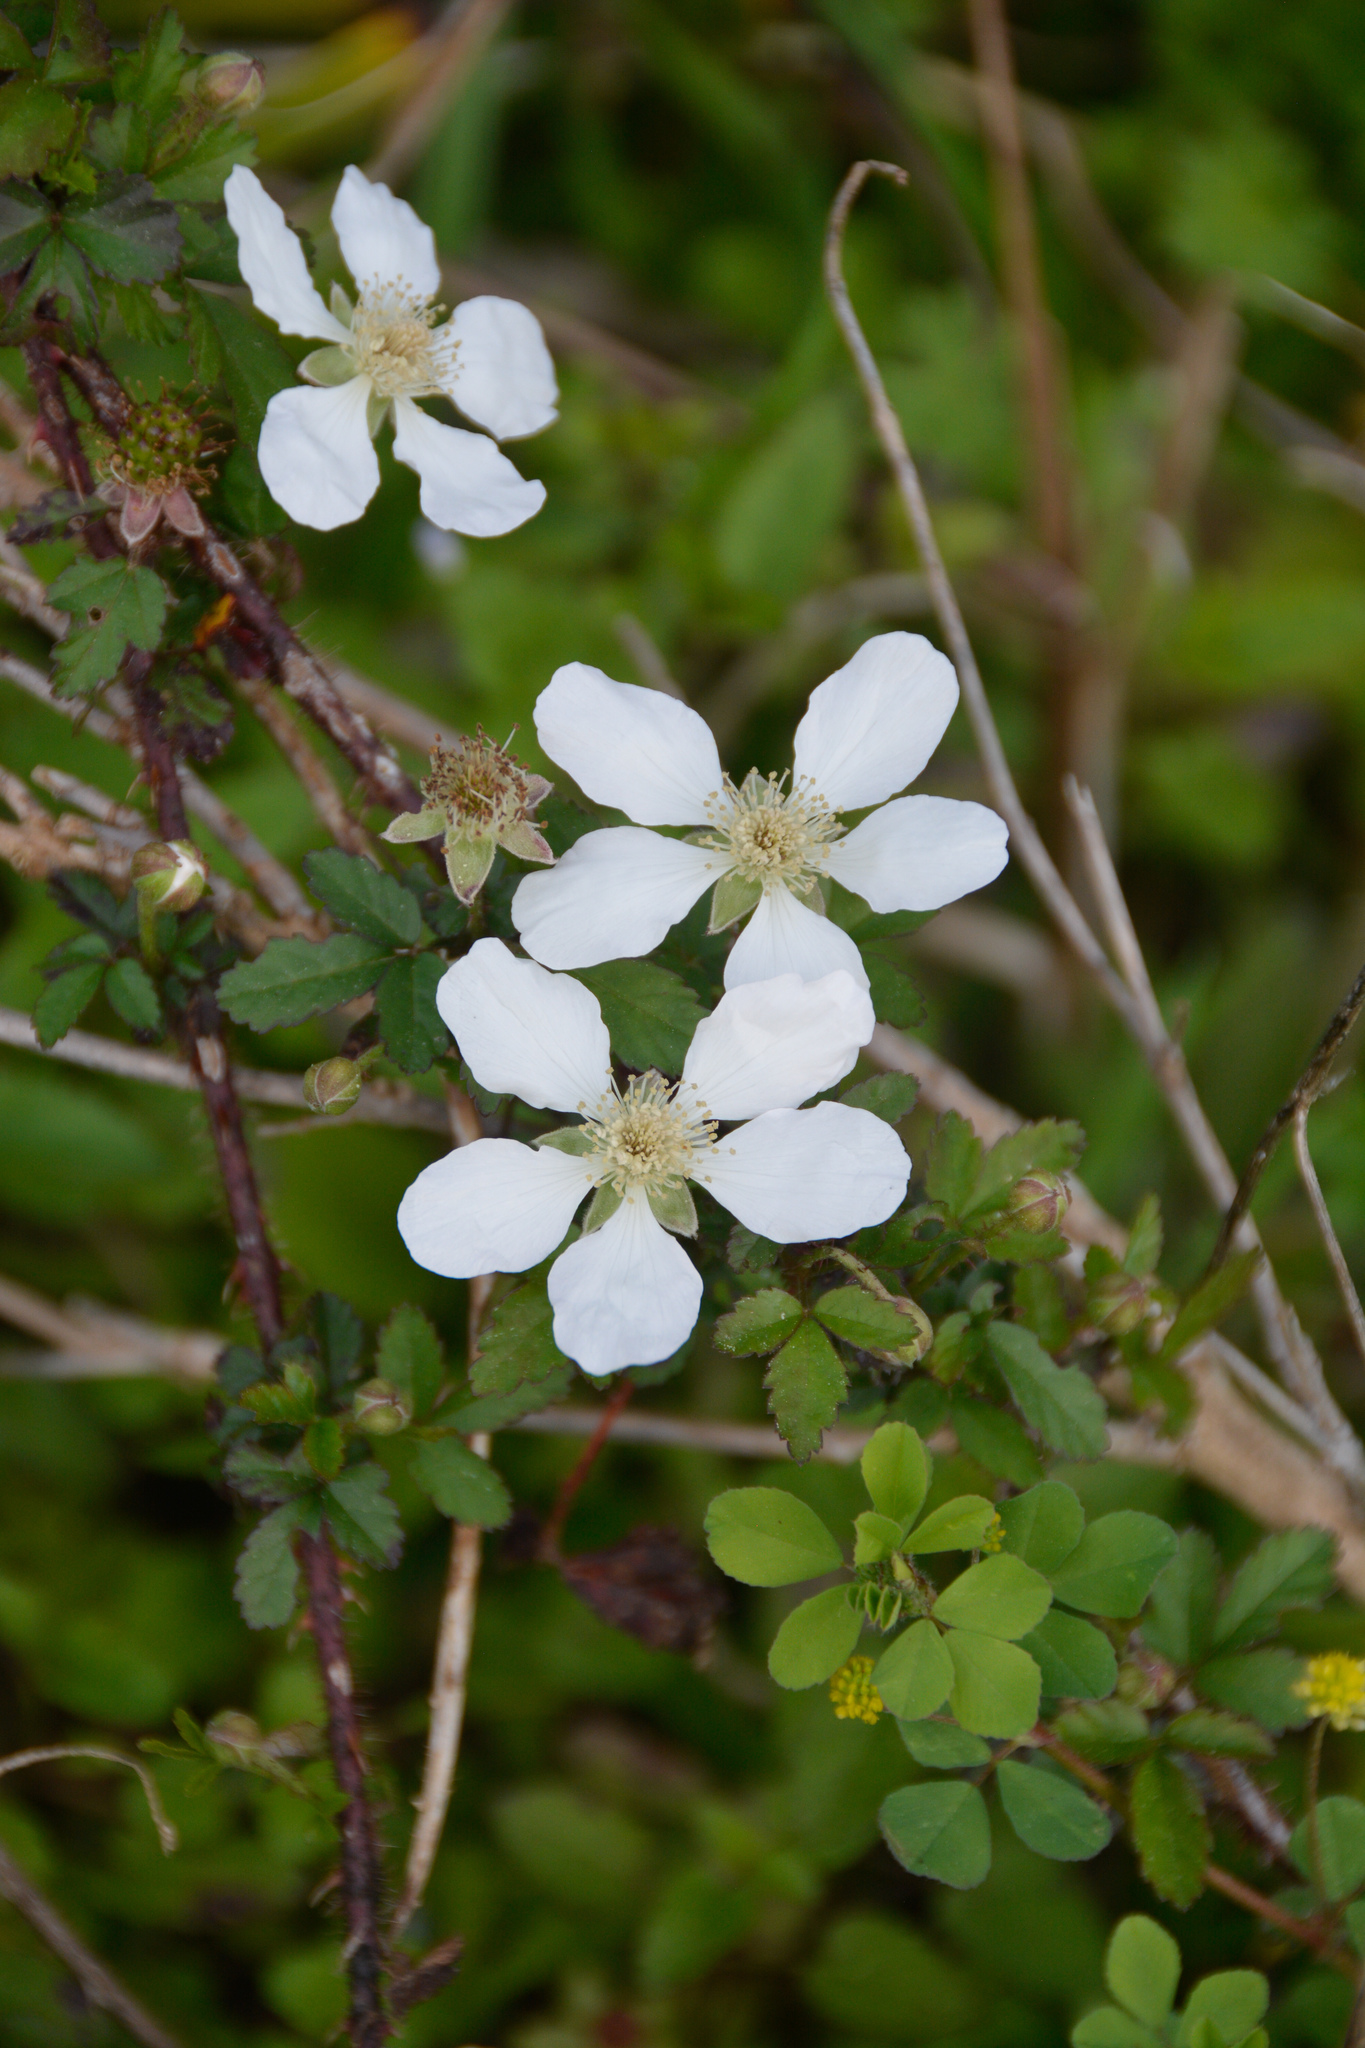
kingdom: Plantae
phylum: Tracheophyta
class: Magnoliopsida
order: Rosales
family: Rosaceae
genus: Rubus
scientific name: Rubus trivialis
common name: Southern dewberry
